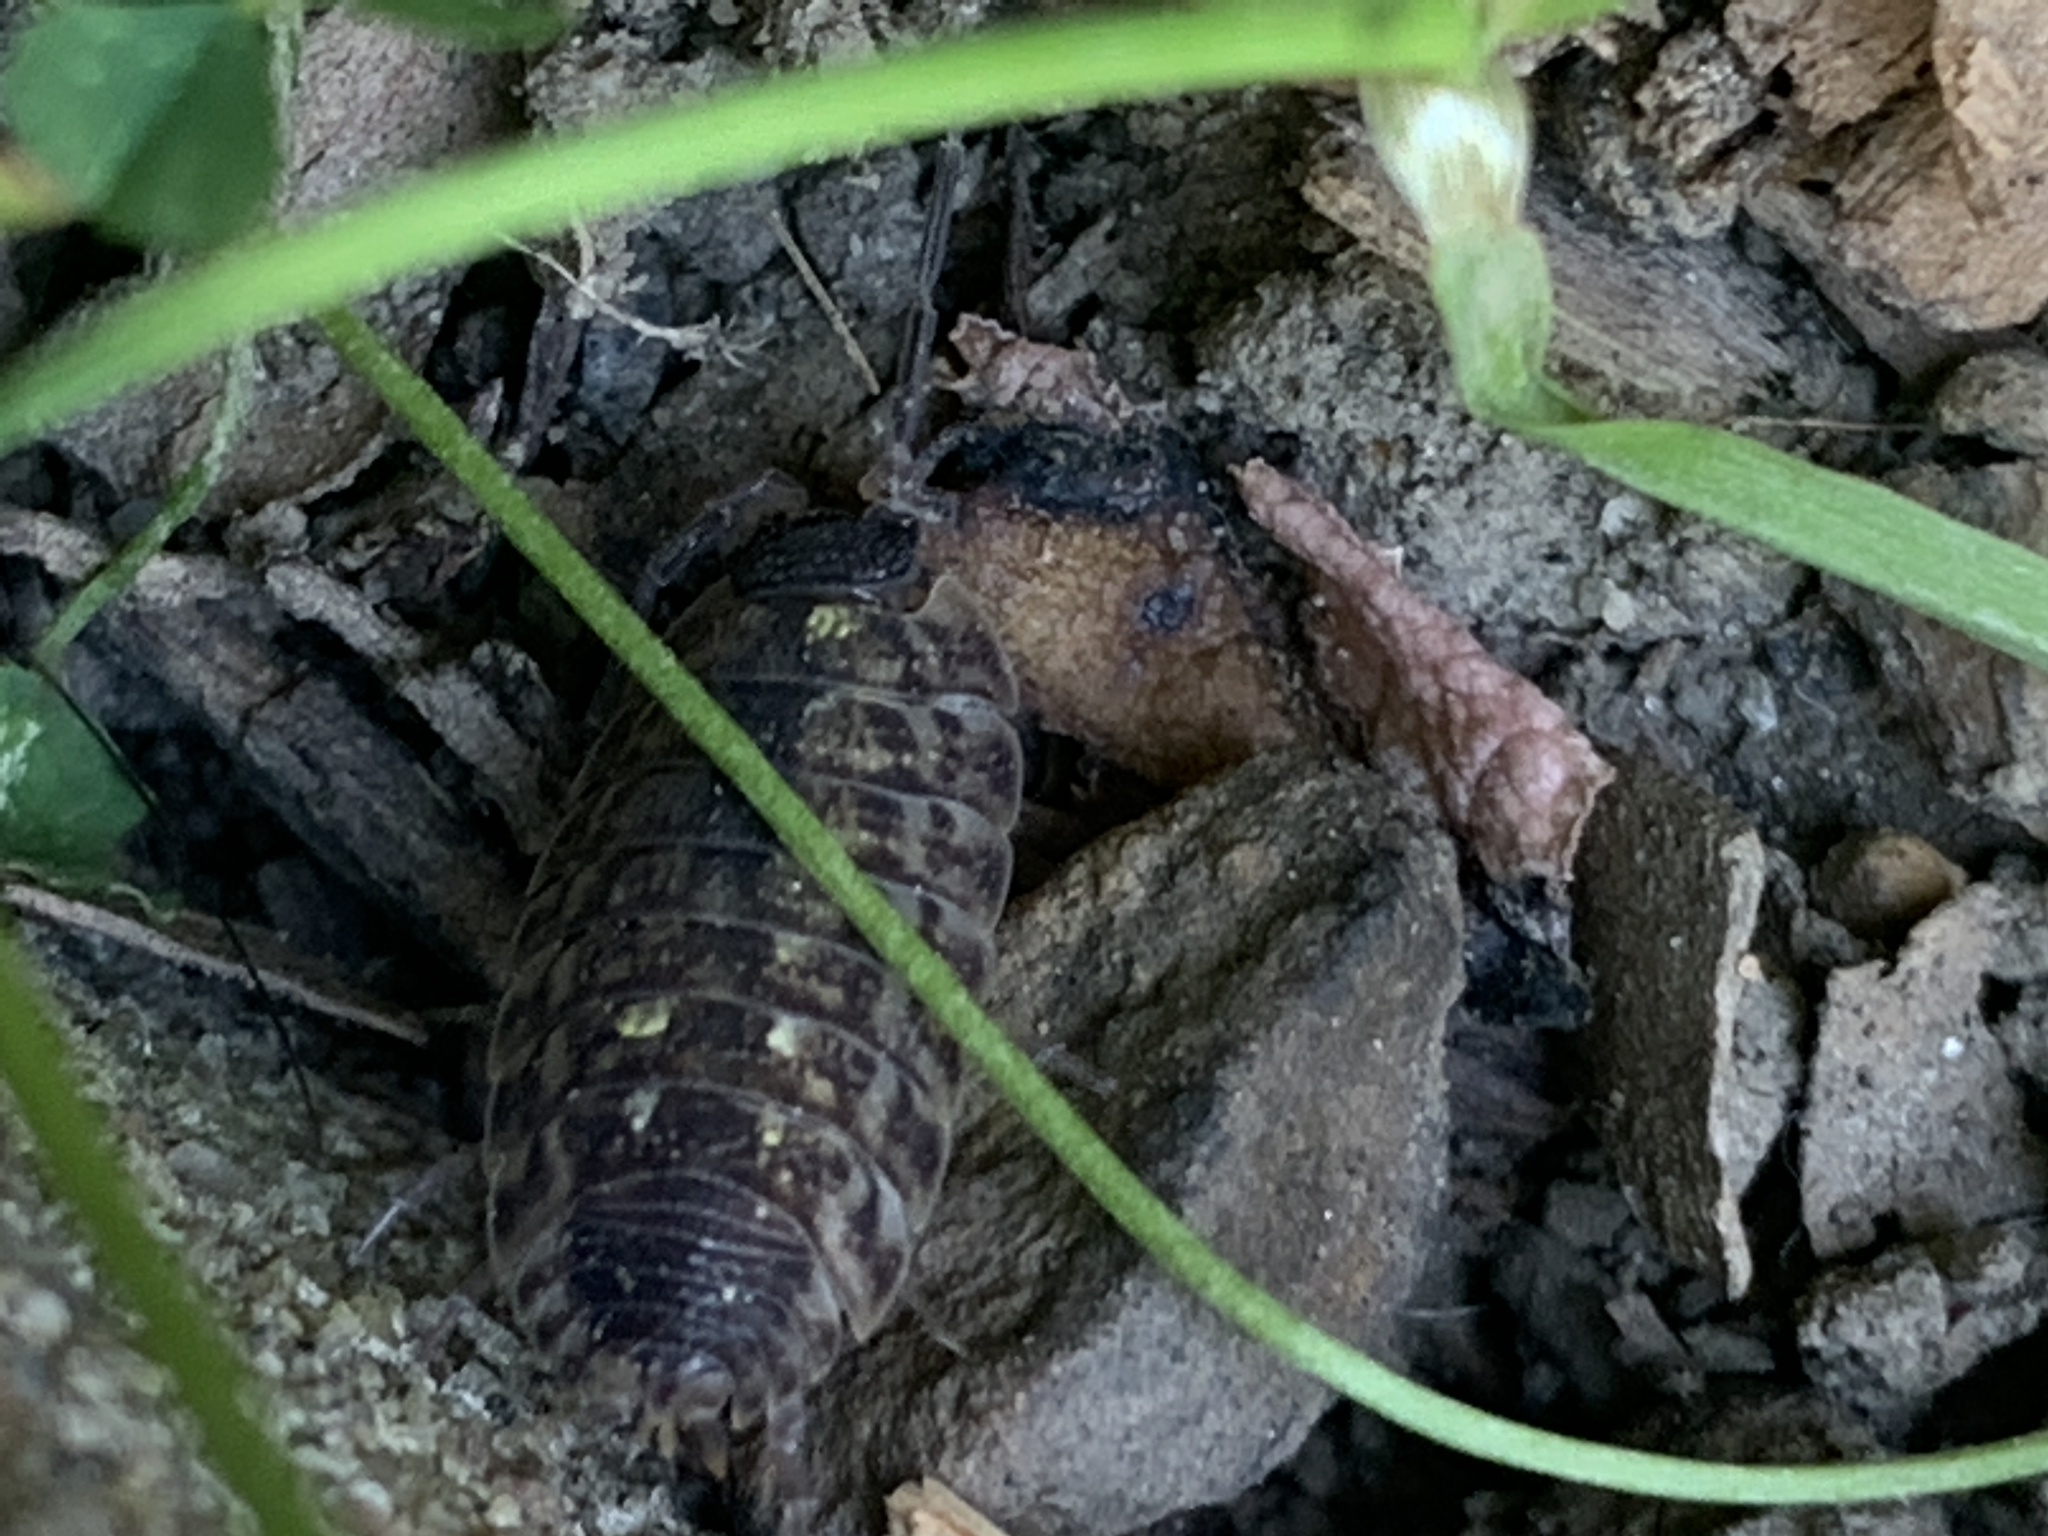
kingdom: Animalia
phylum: Arthropoda
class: Malacostraca
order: Isopoda
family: Porcellionidae
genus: Porcellio
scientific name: Porcellio spinicornis
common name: Painted woodlouse
